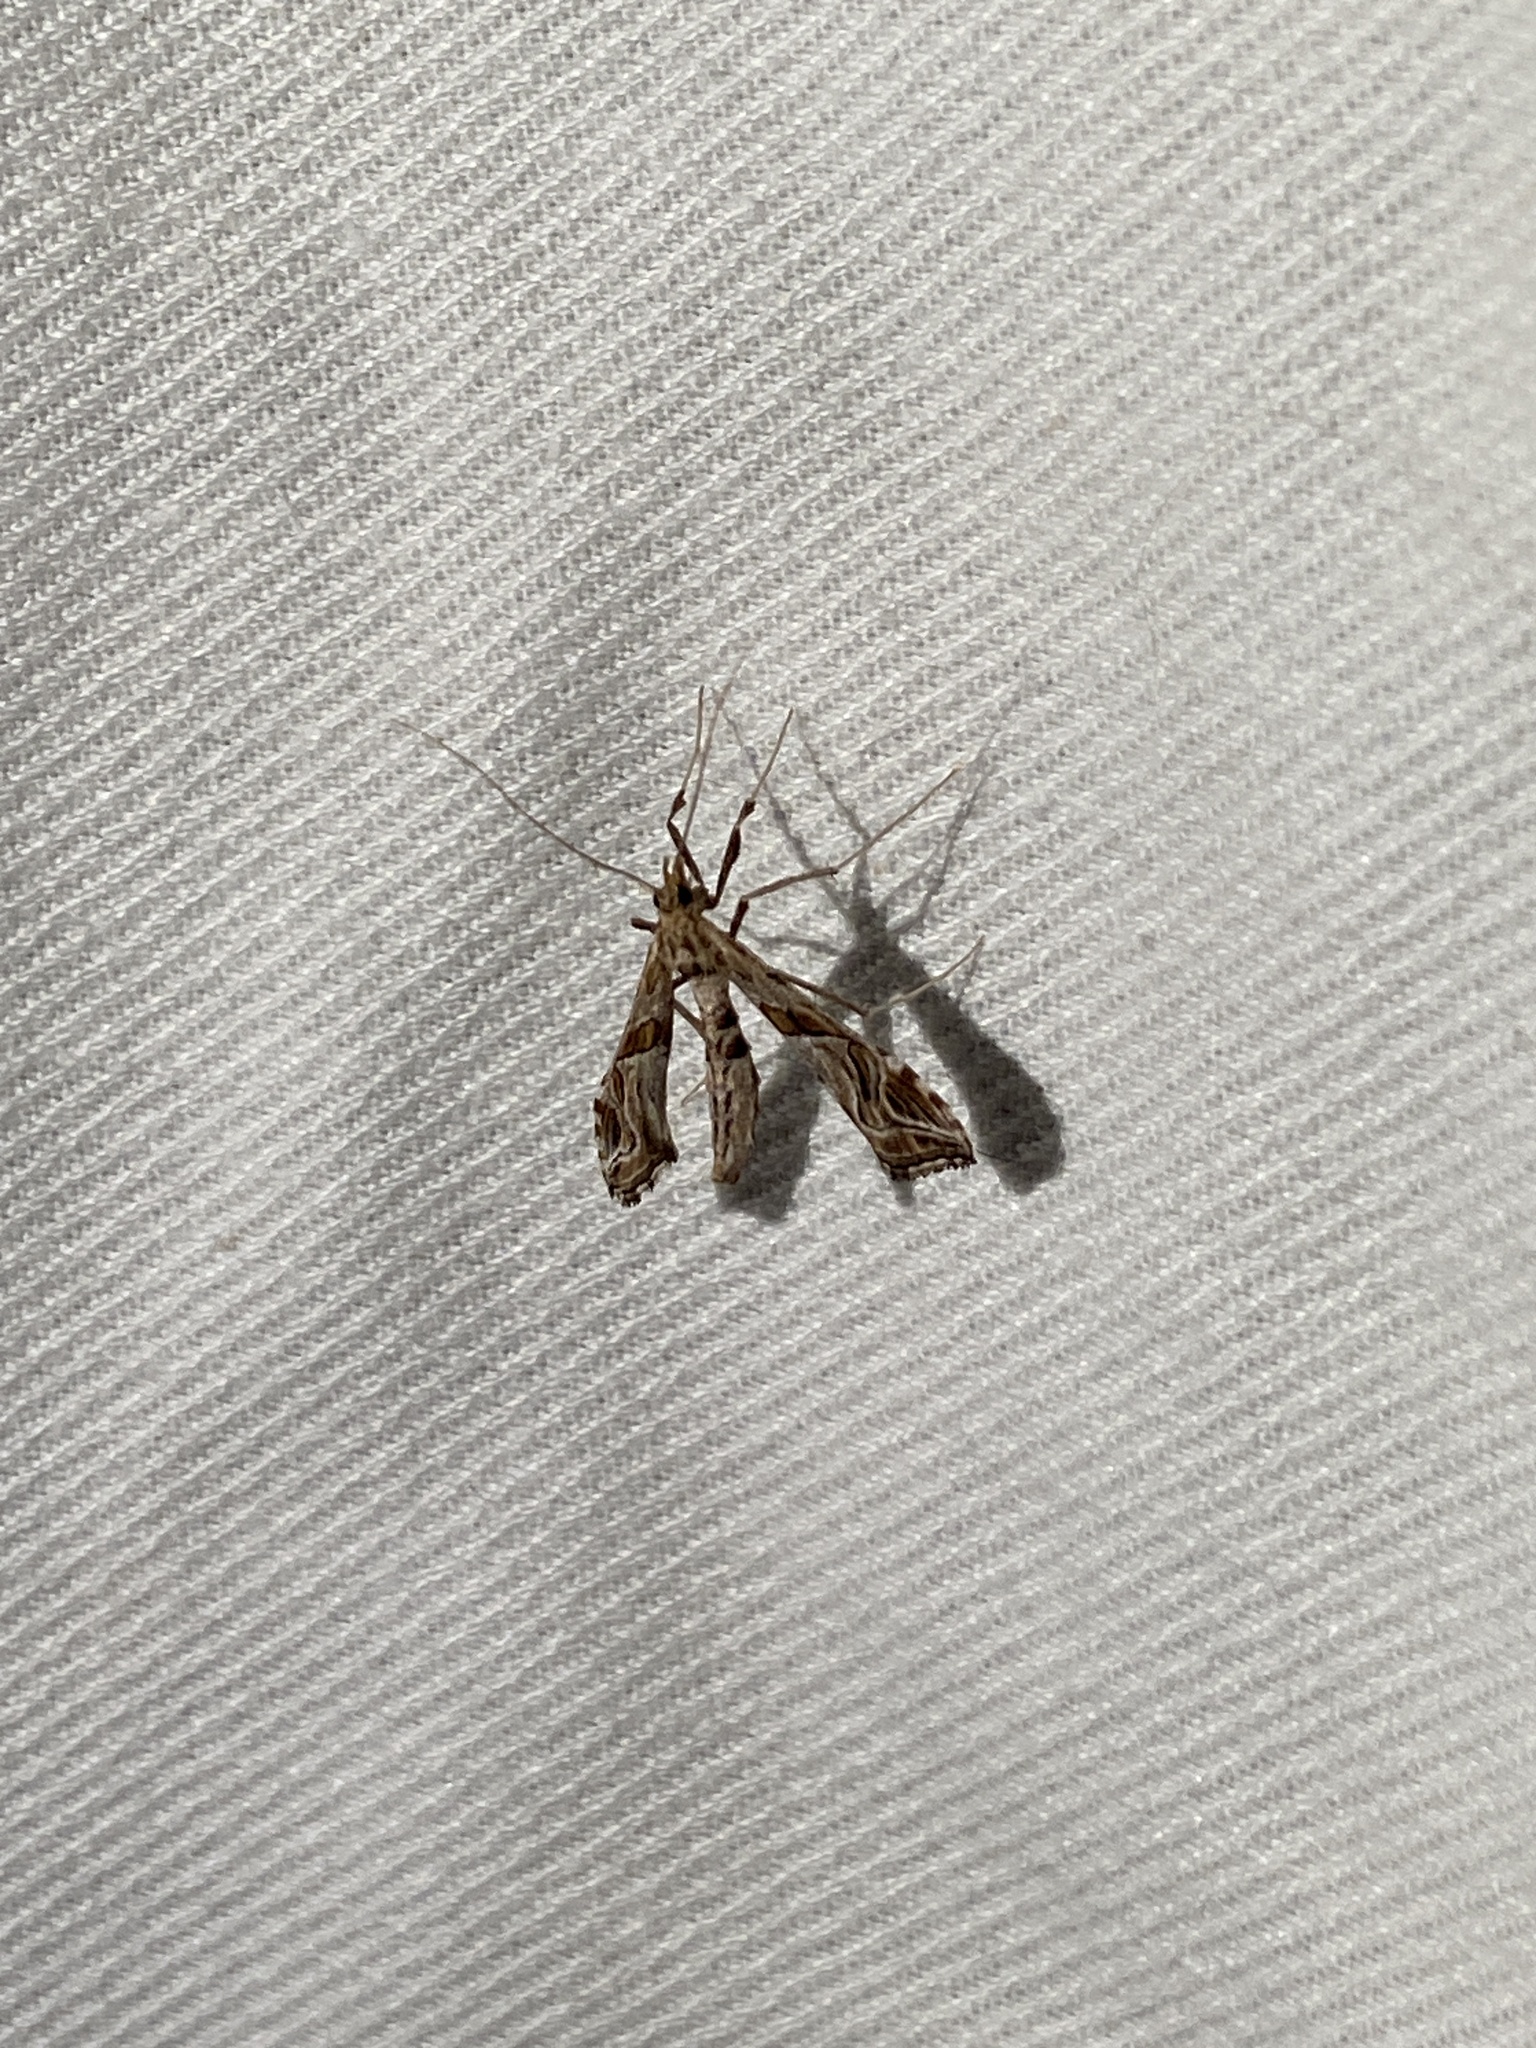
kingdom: Animalia
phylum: Arthropoda
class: Insecta
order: Lepidoptera
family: Crambidae
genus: Lineodes
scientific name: Lineodes integra
